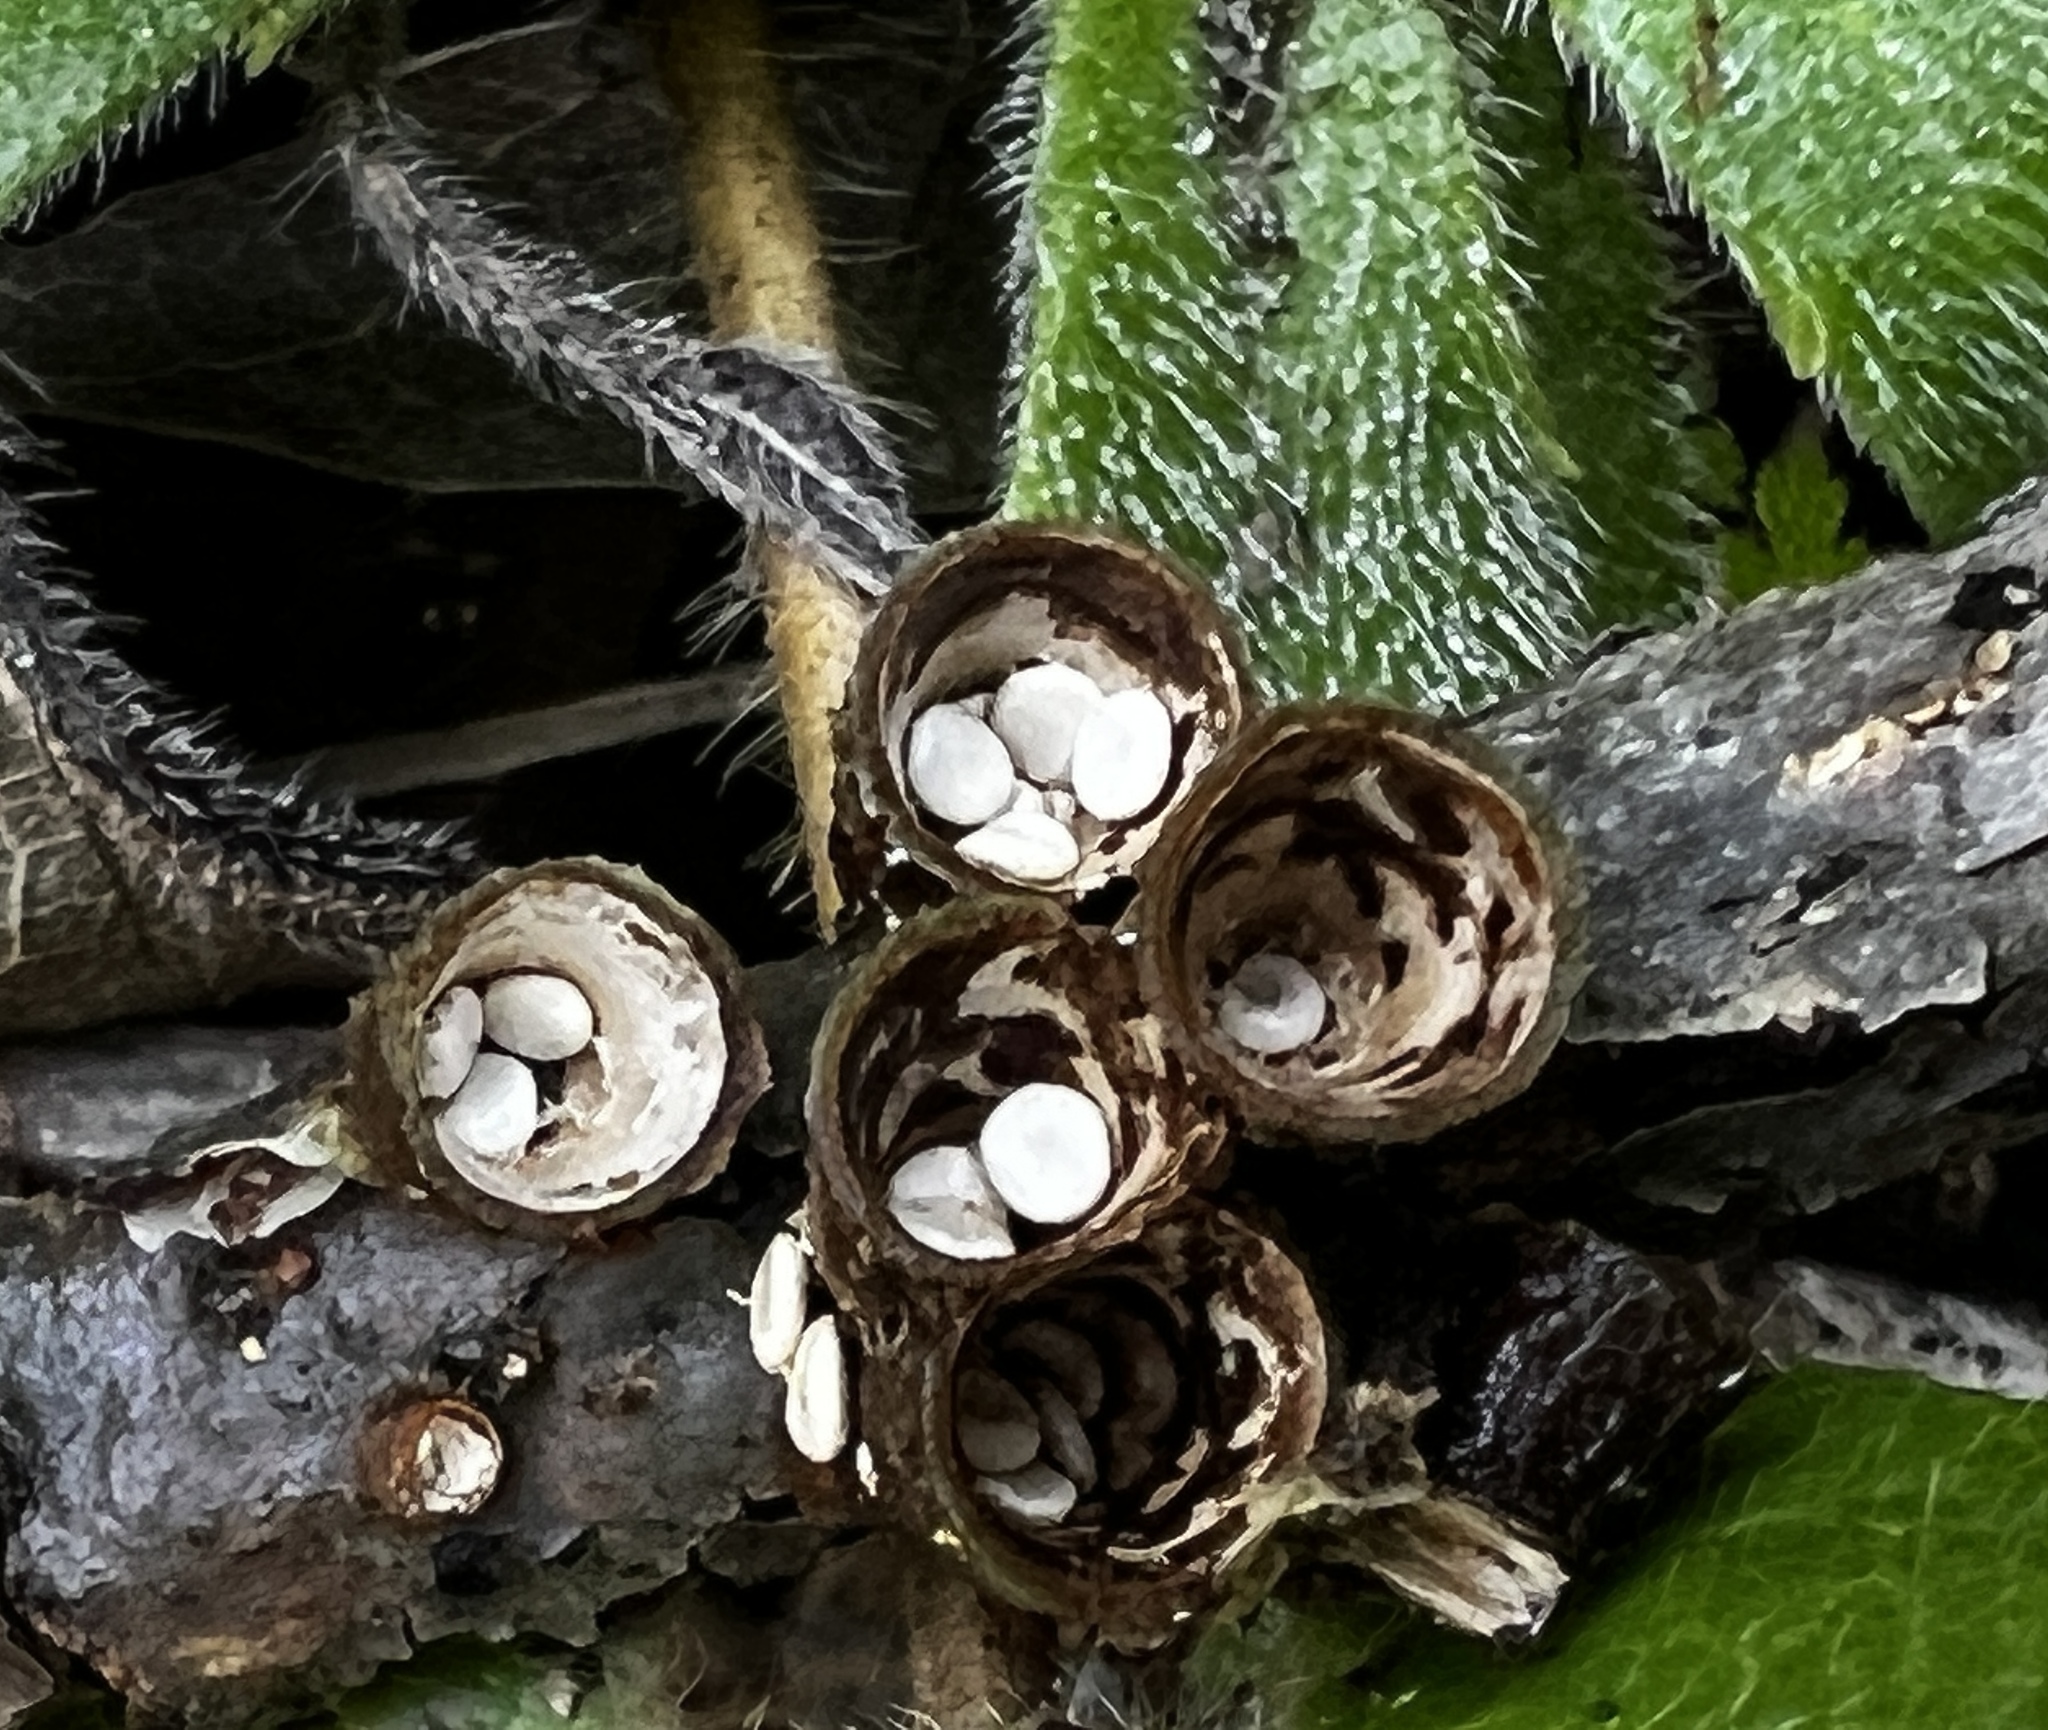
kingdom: Fungi
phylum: Basidiomycota
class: Agaricomycetes
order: Agaricales
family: Nidulariaceae
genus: Crucibulum
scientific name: Crucibulum laeve
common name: Common bird's nest
